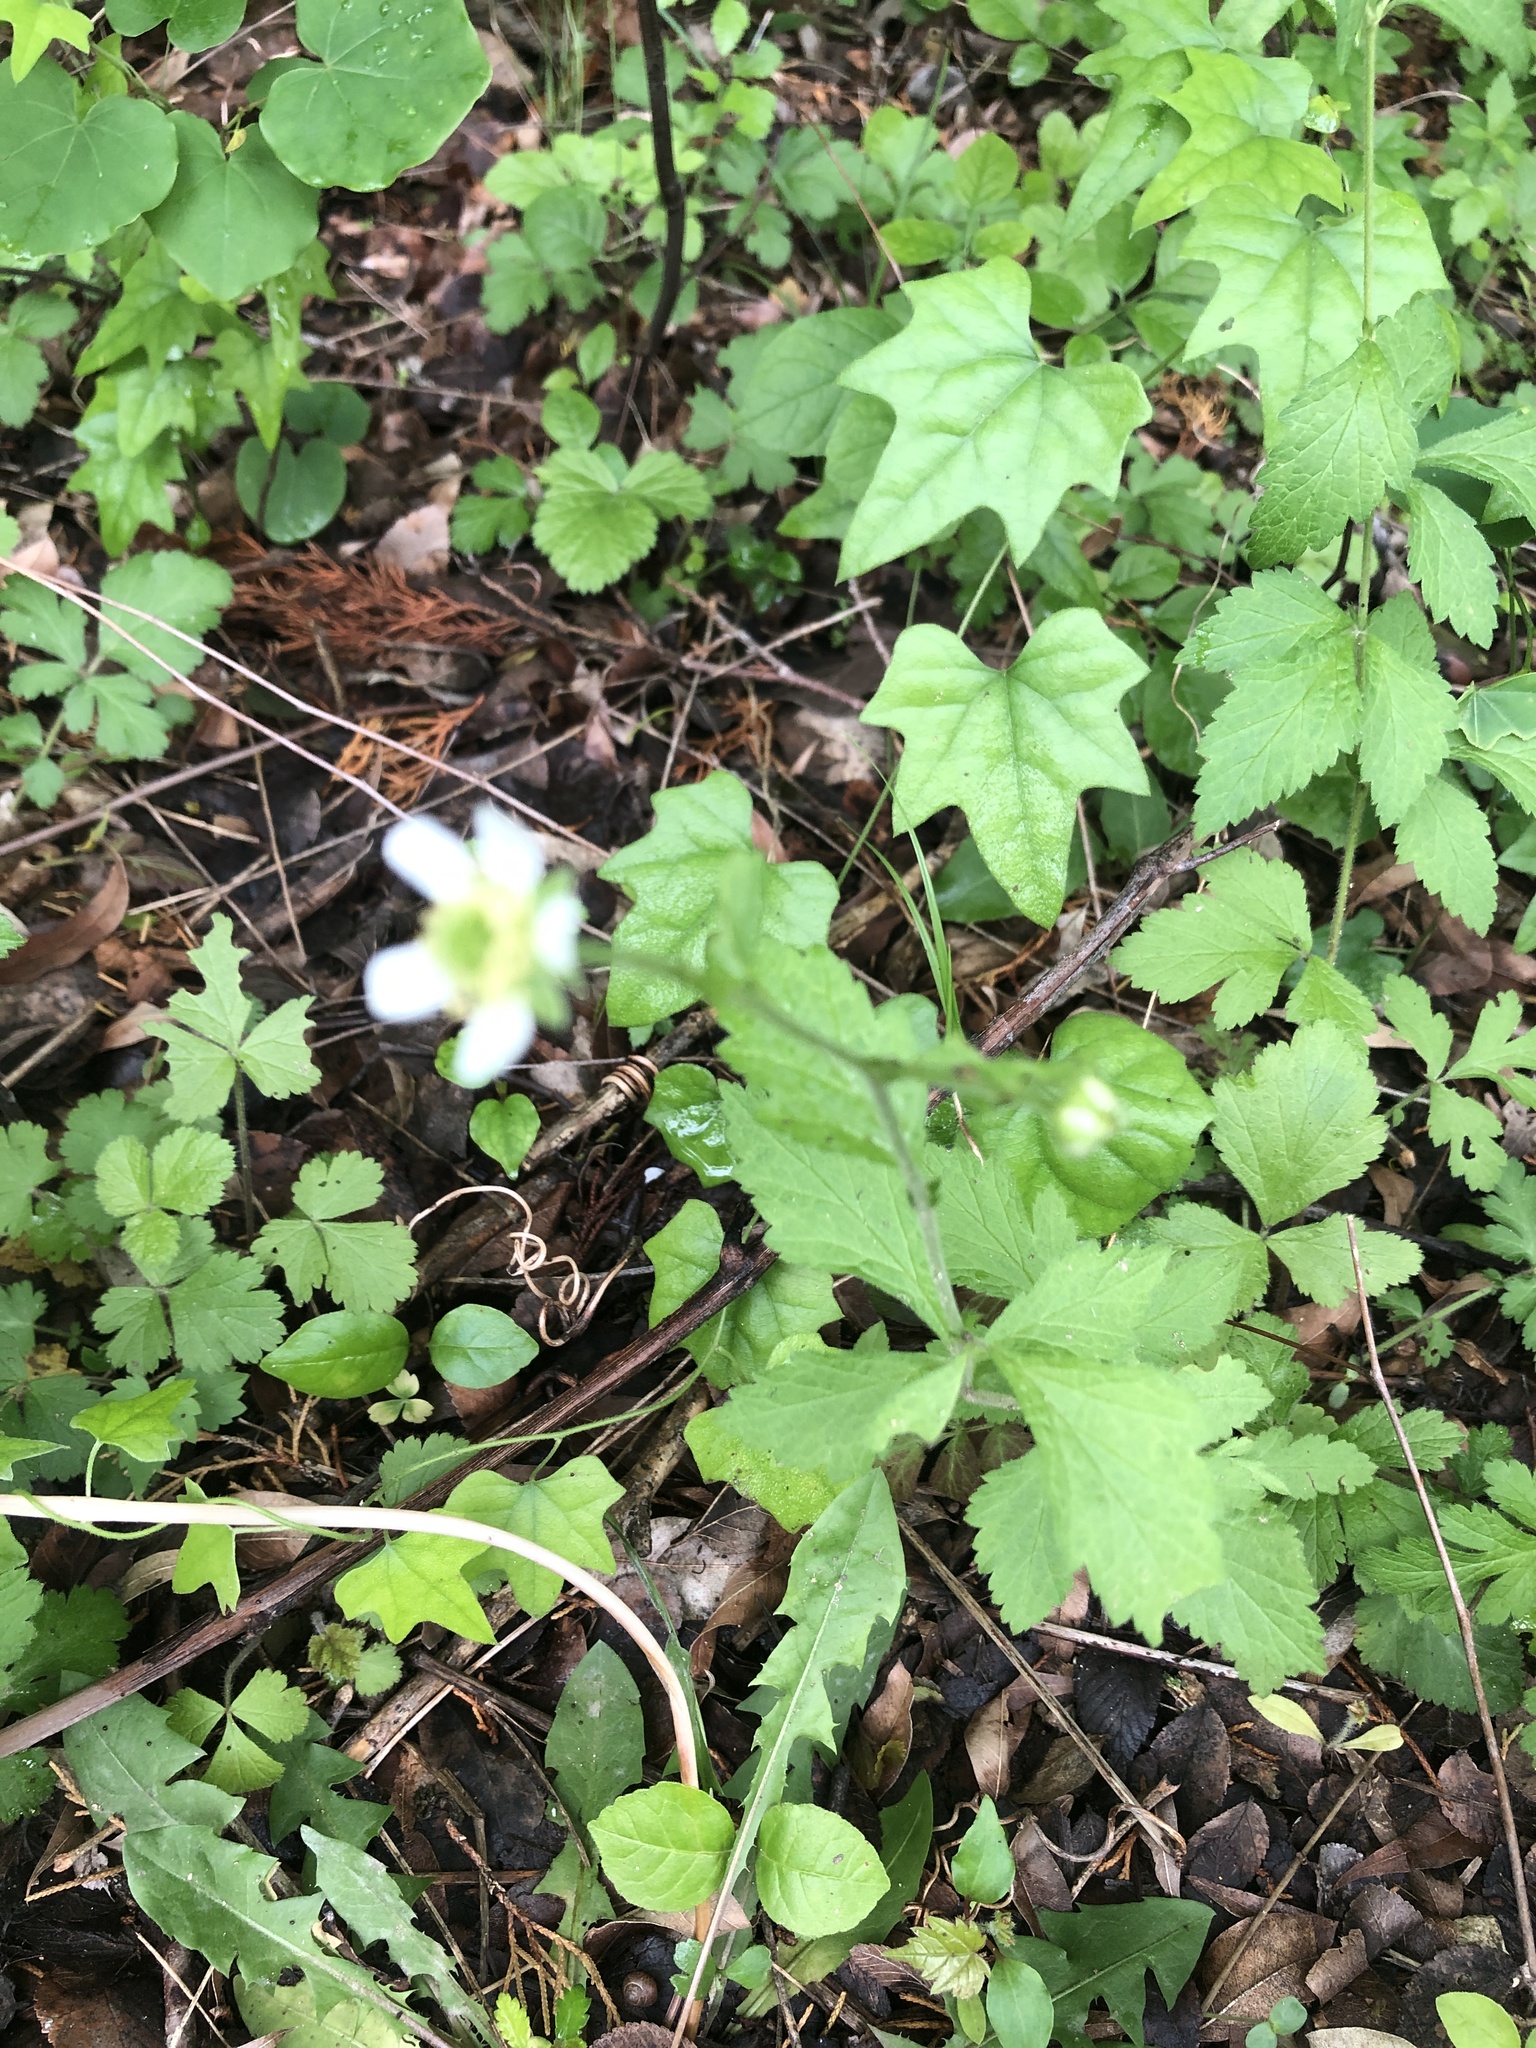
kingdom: Plantae
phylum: Tracheophyta
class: Magnoliopsida
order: Rosales
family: Rosaceae
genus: Geum
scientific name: Geum canadense
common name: White avens
